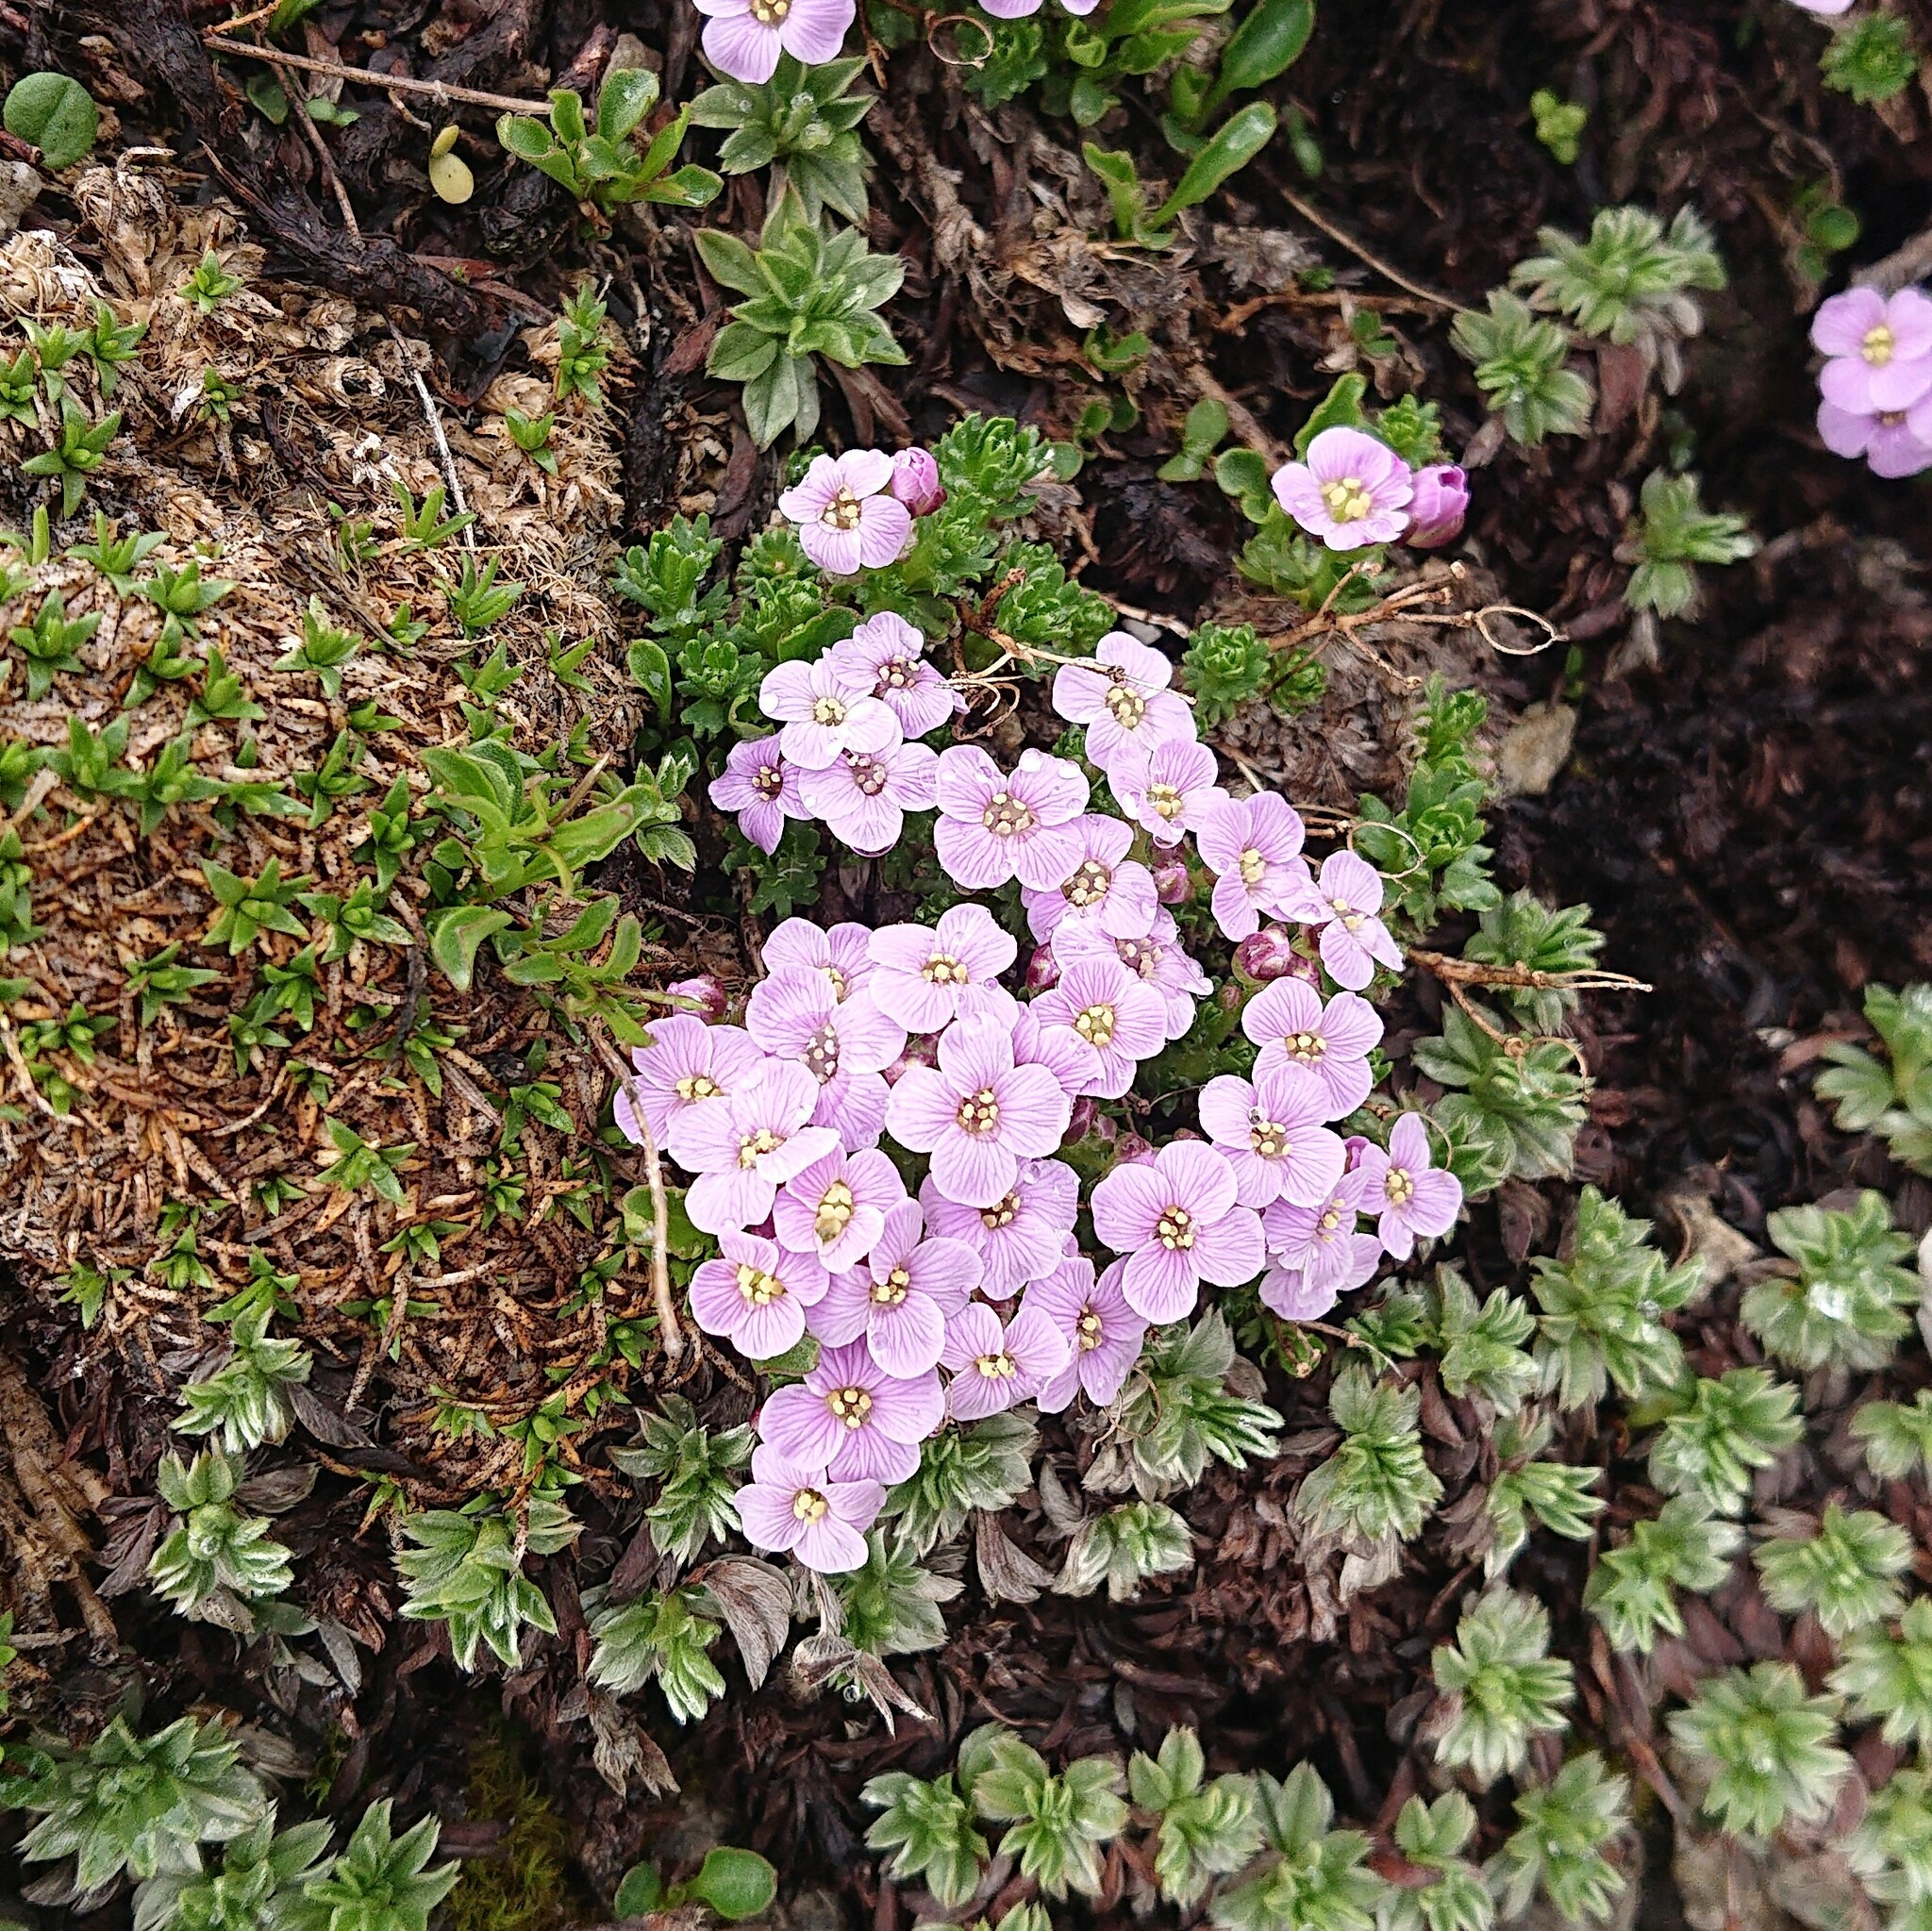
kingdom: Plantae
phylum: Tracheophyta
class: Magnoliopsida
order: Brassicales
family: Brassicaceae
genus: Petrocallis
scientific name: Petrocallis pyrenaica
